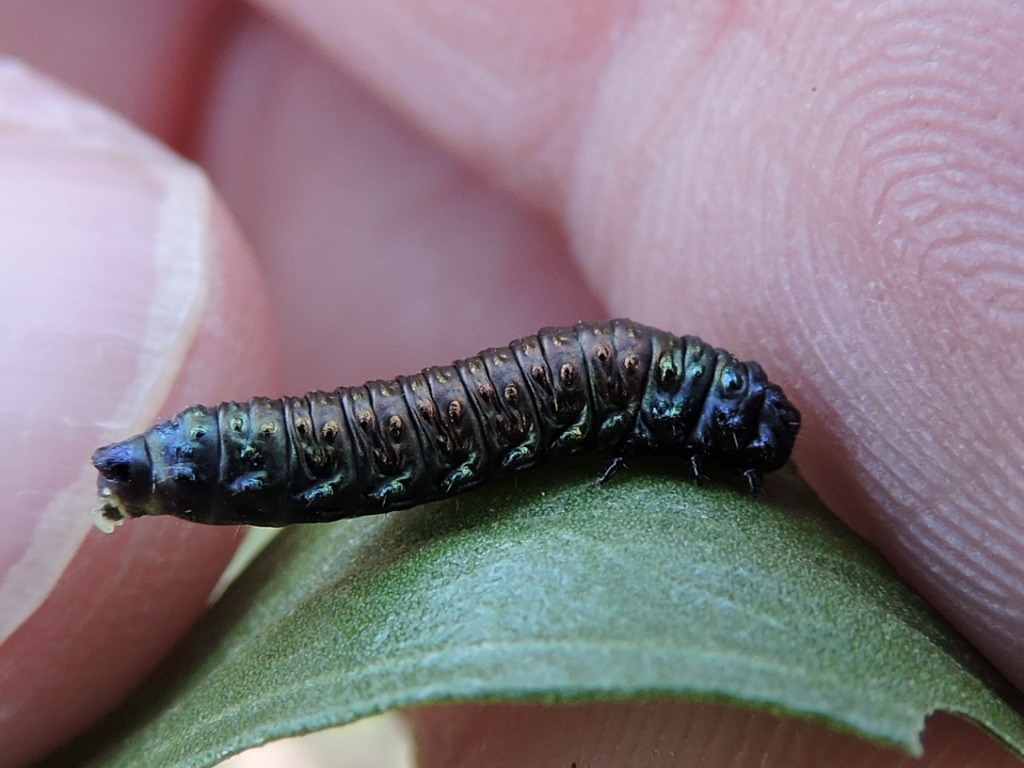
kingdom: Animalia
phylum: Arthropoda
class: Insecta
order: Coleoptera
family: Chrysomelidae
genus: Trirhabda
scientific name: Trirhabda bacharidis
